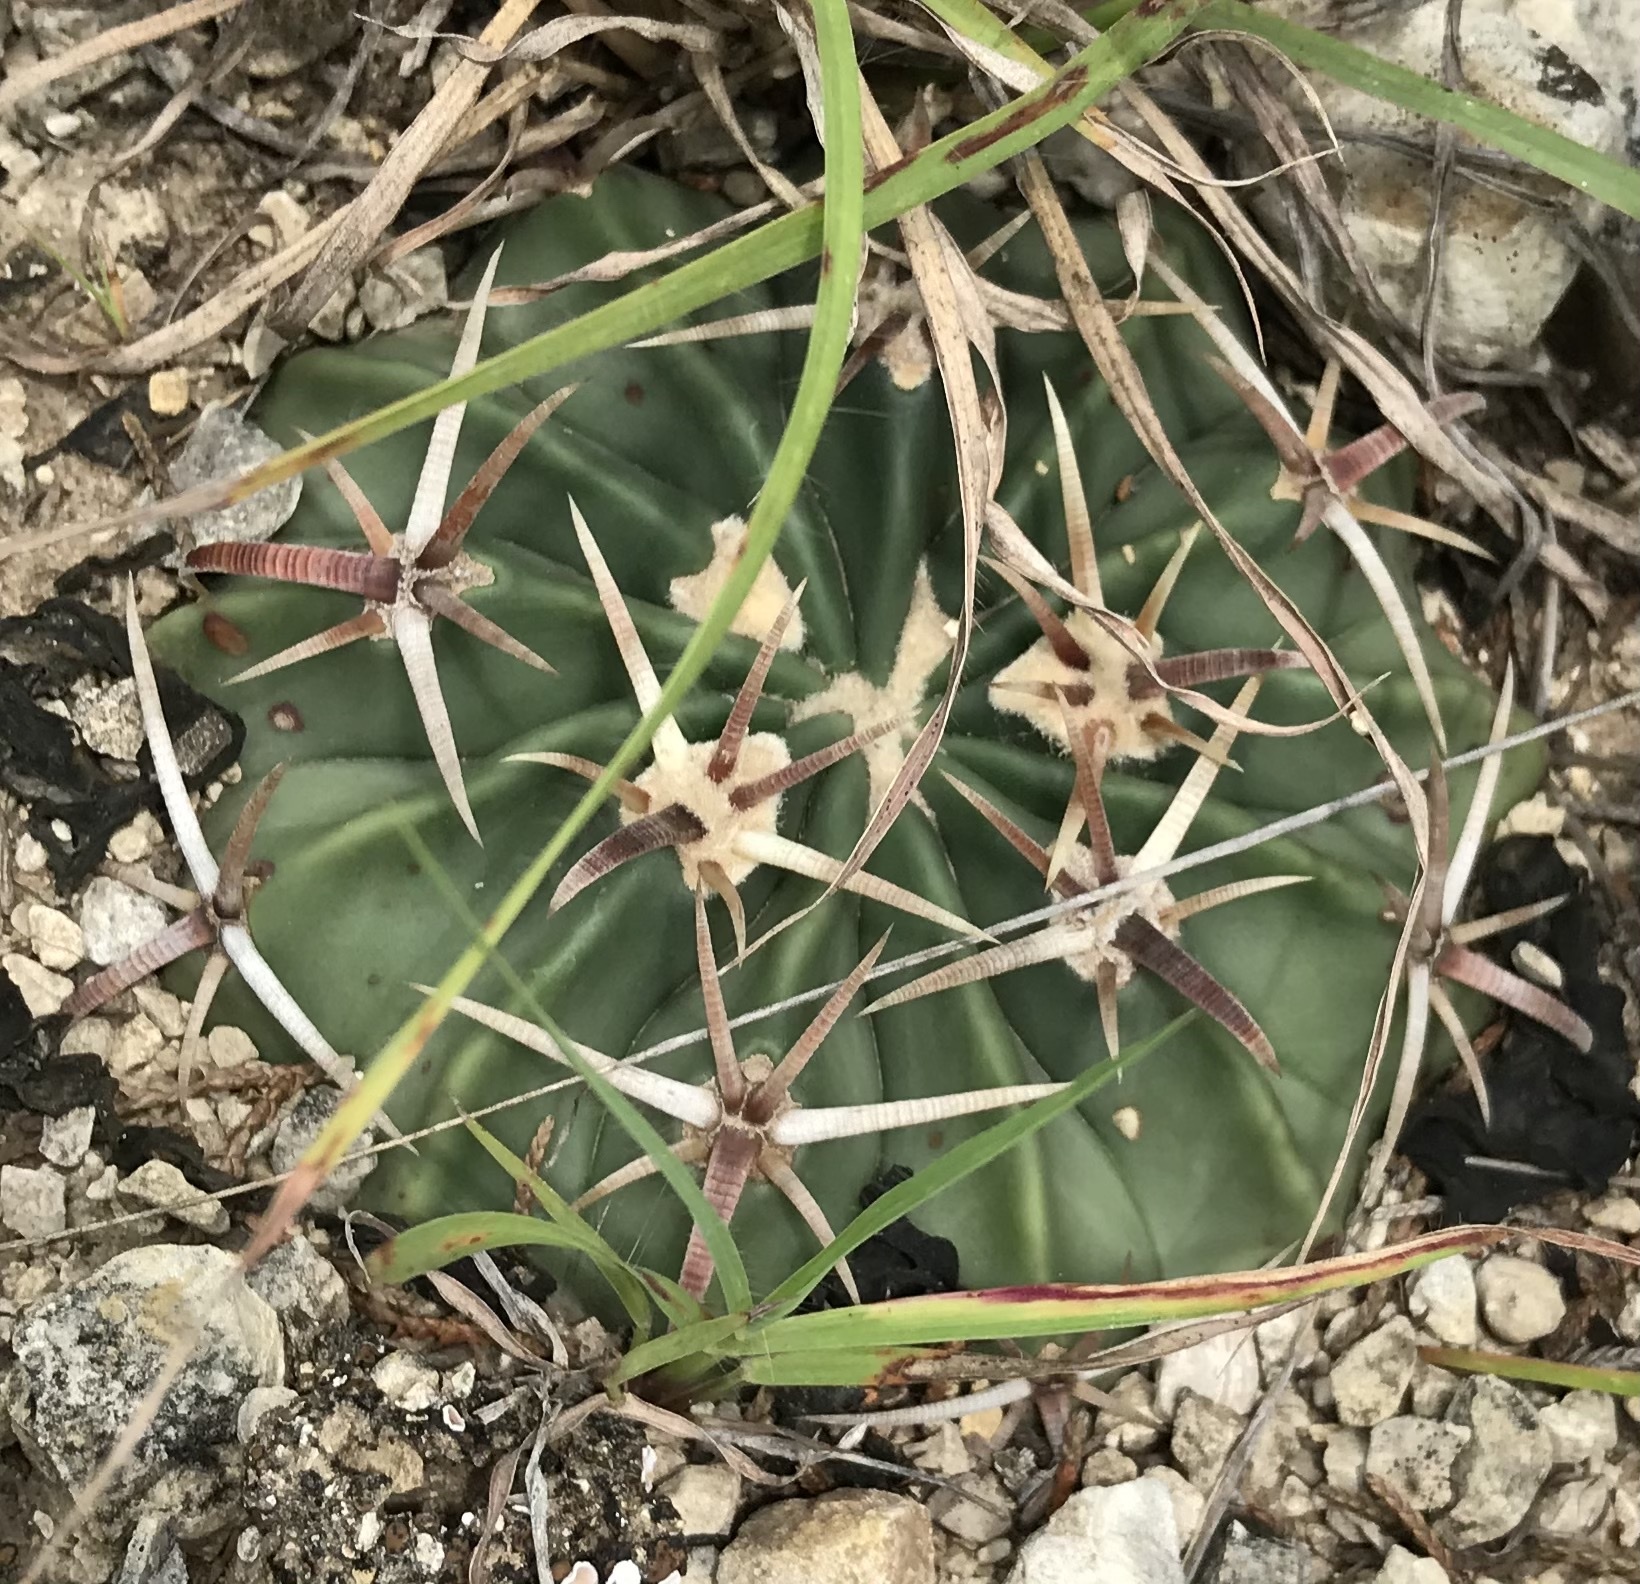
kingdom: Plantae
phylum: Tracheophyta
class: Magnoliopsida
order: Caryophyllales
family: Cactaceae
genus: Echinocactus
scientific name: Echinocactus texensis
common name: Devil's pincushion
